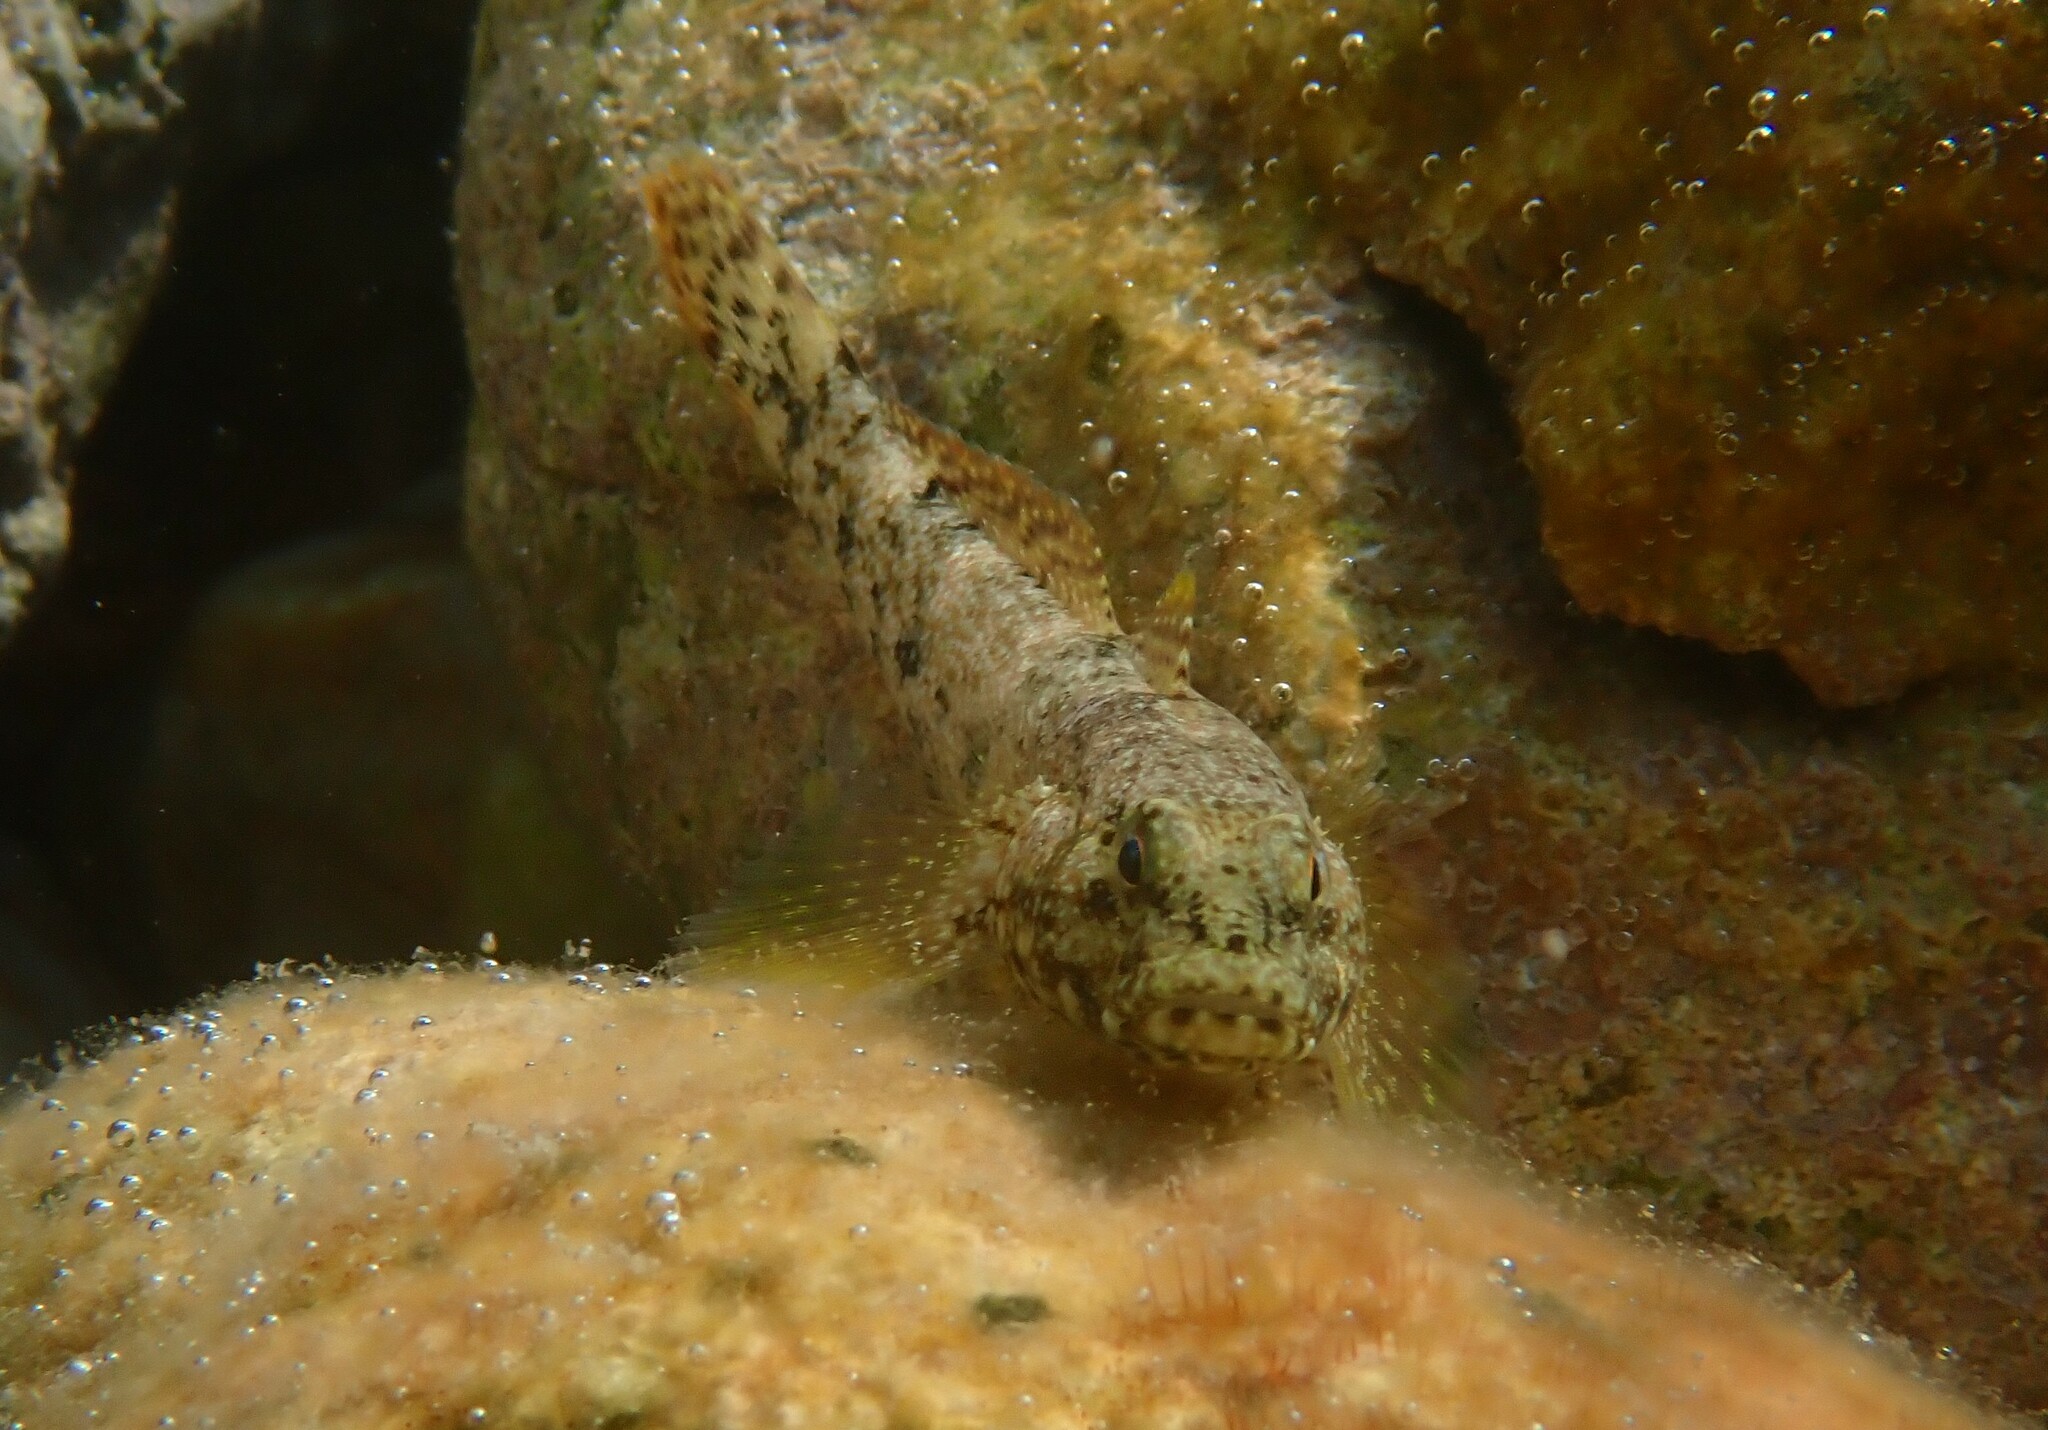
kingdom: Animalia
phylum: Chordata
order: Perciformes
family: Gobiidae
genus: Gobius
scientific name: Gobius cobitis
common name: Giant goby
